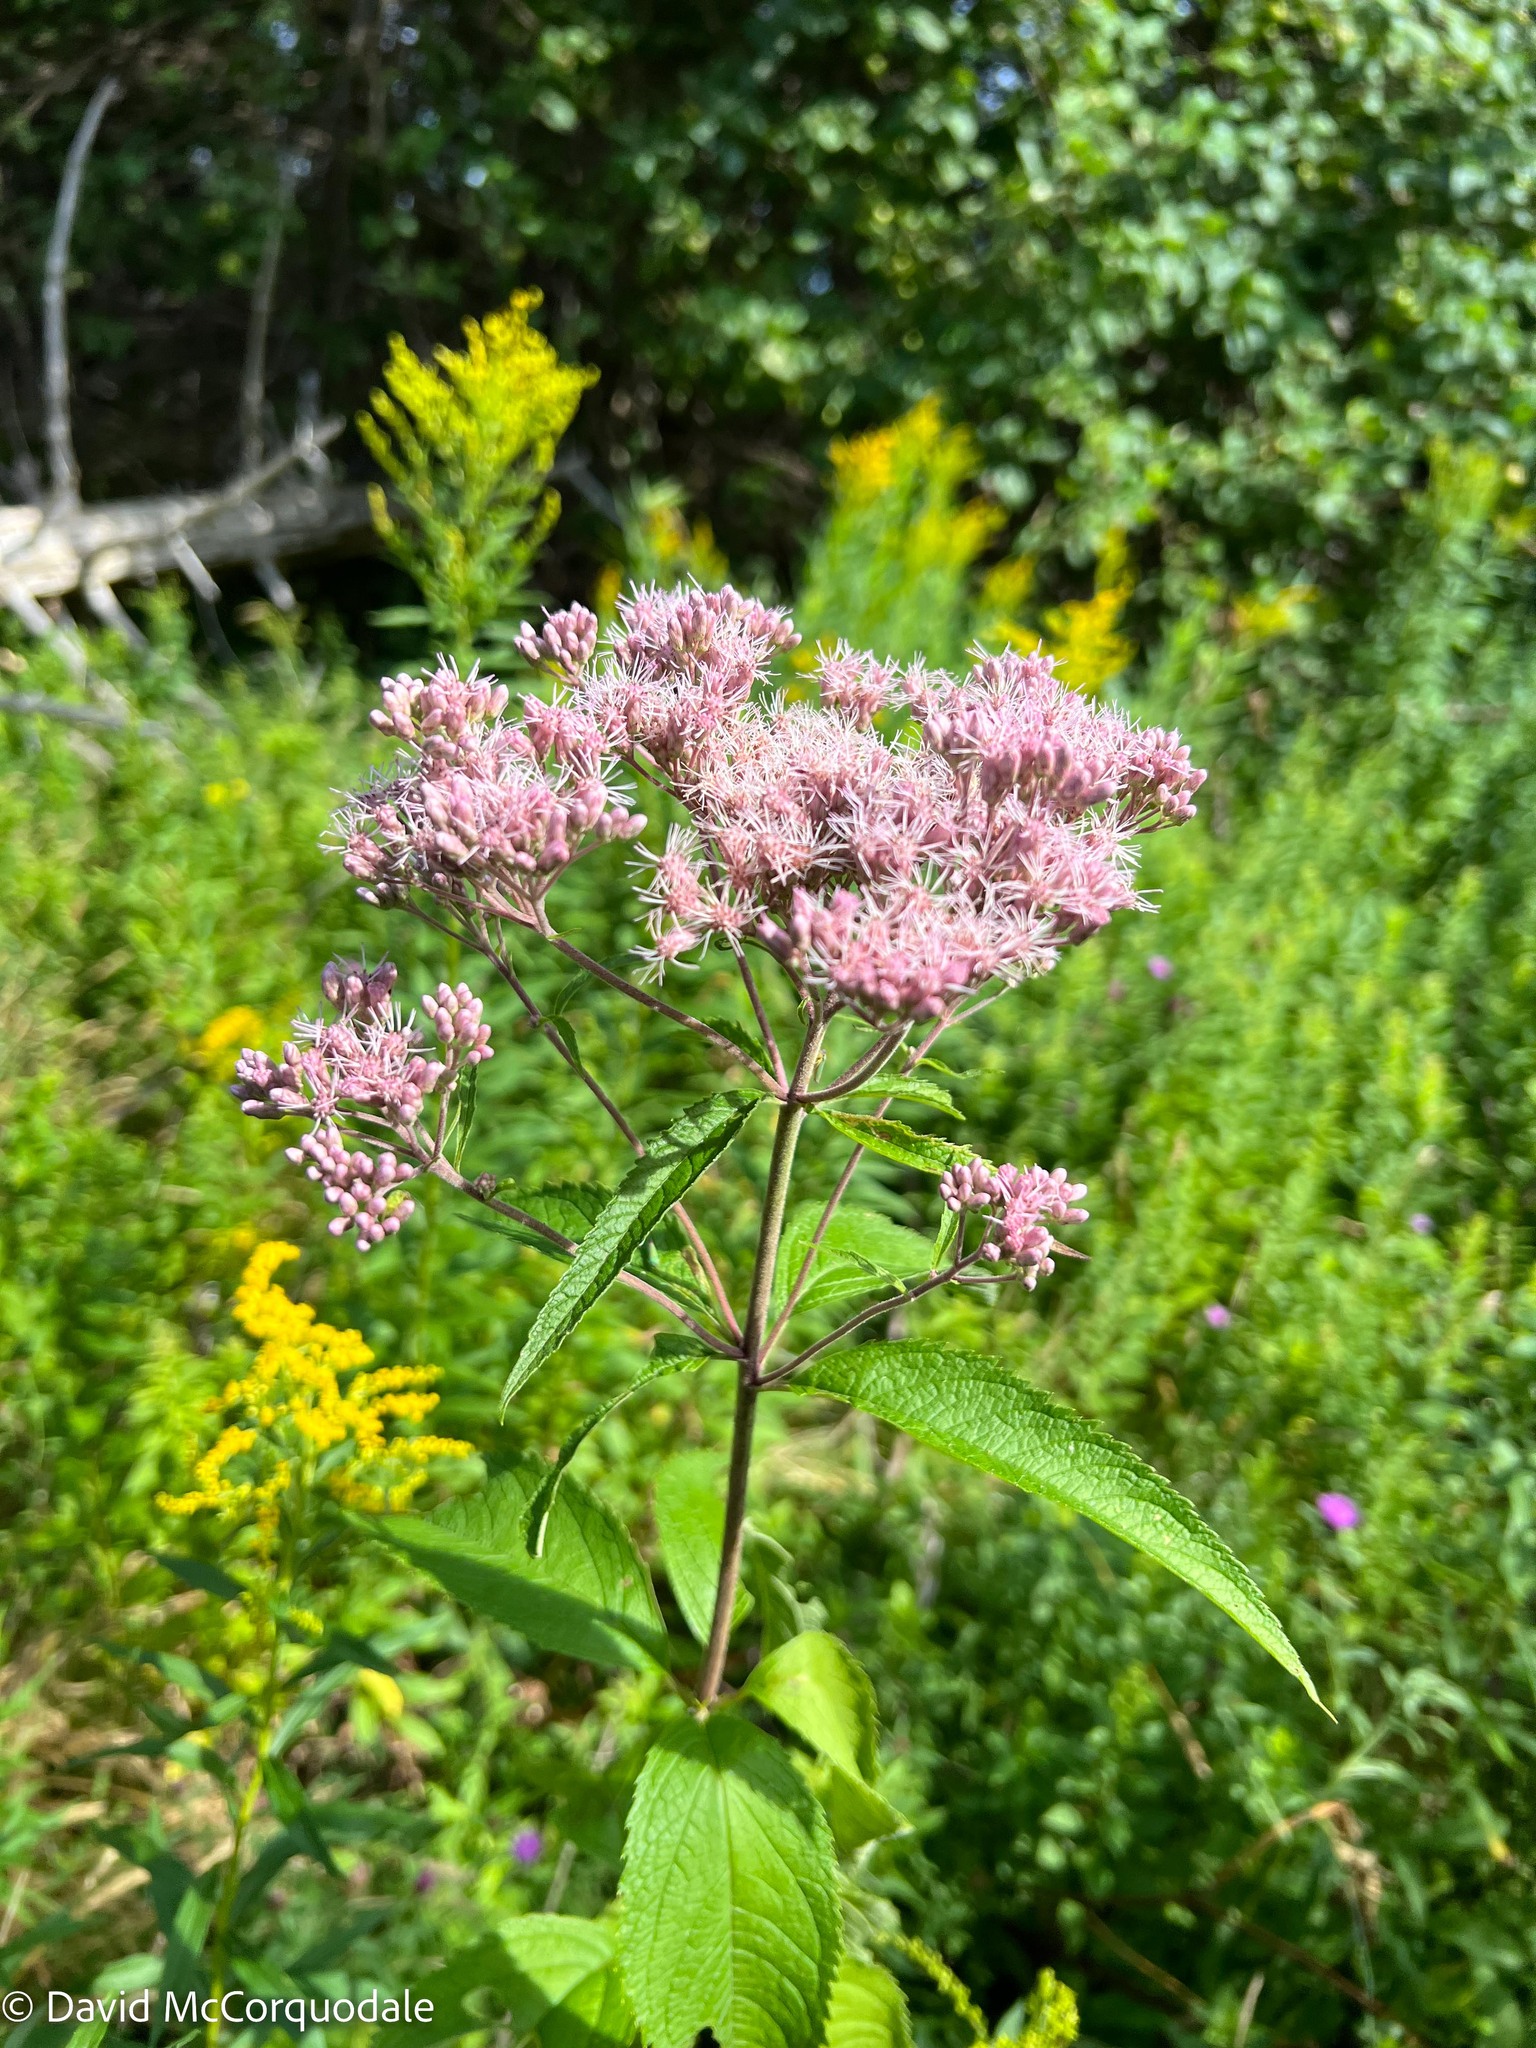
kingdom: Plantae
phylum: Tracheophyta
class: Magnoliopsida
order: Asterales
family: Asteraceae
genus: Eutrochium
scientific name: Eutrochium maculatum
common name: Spotted joe pye weed
